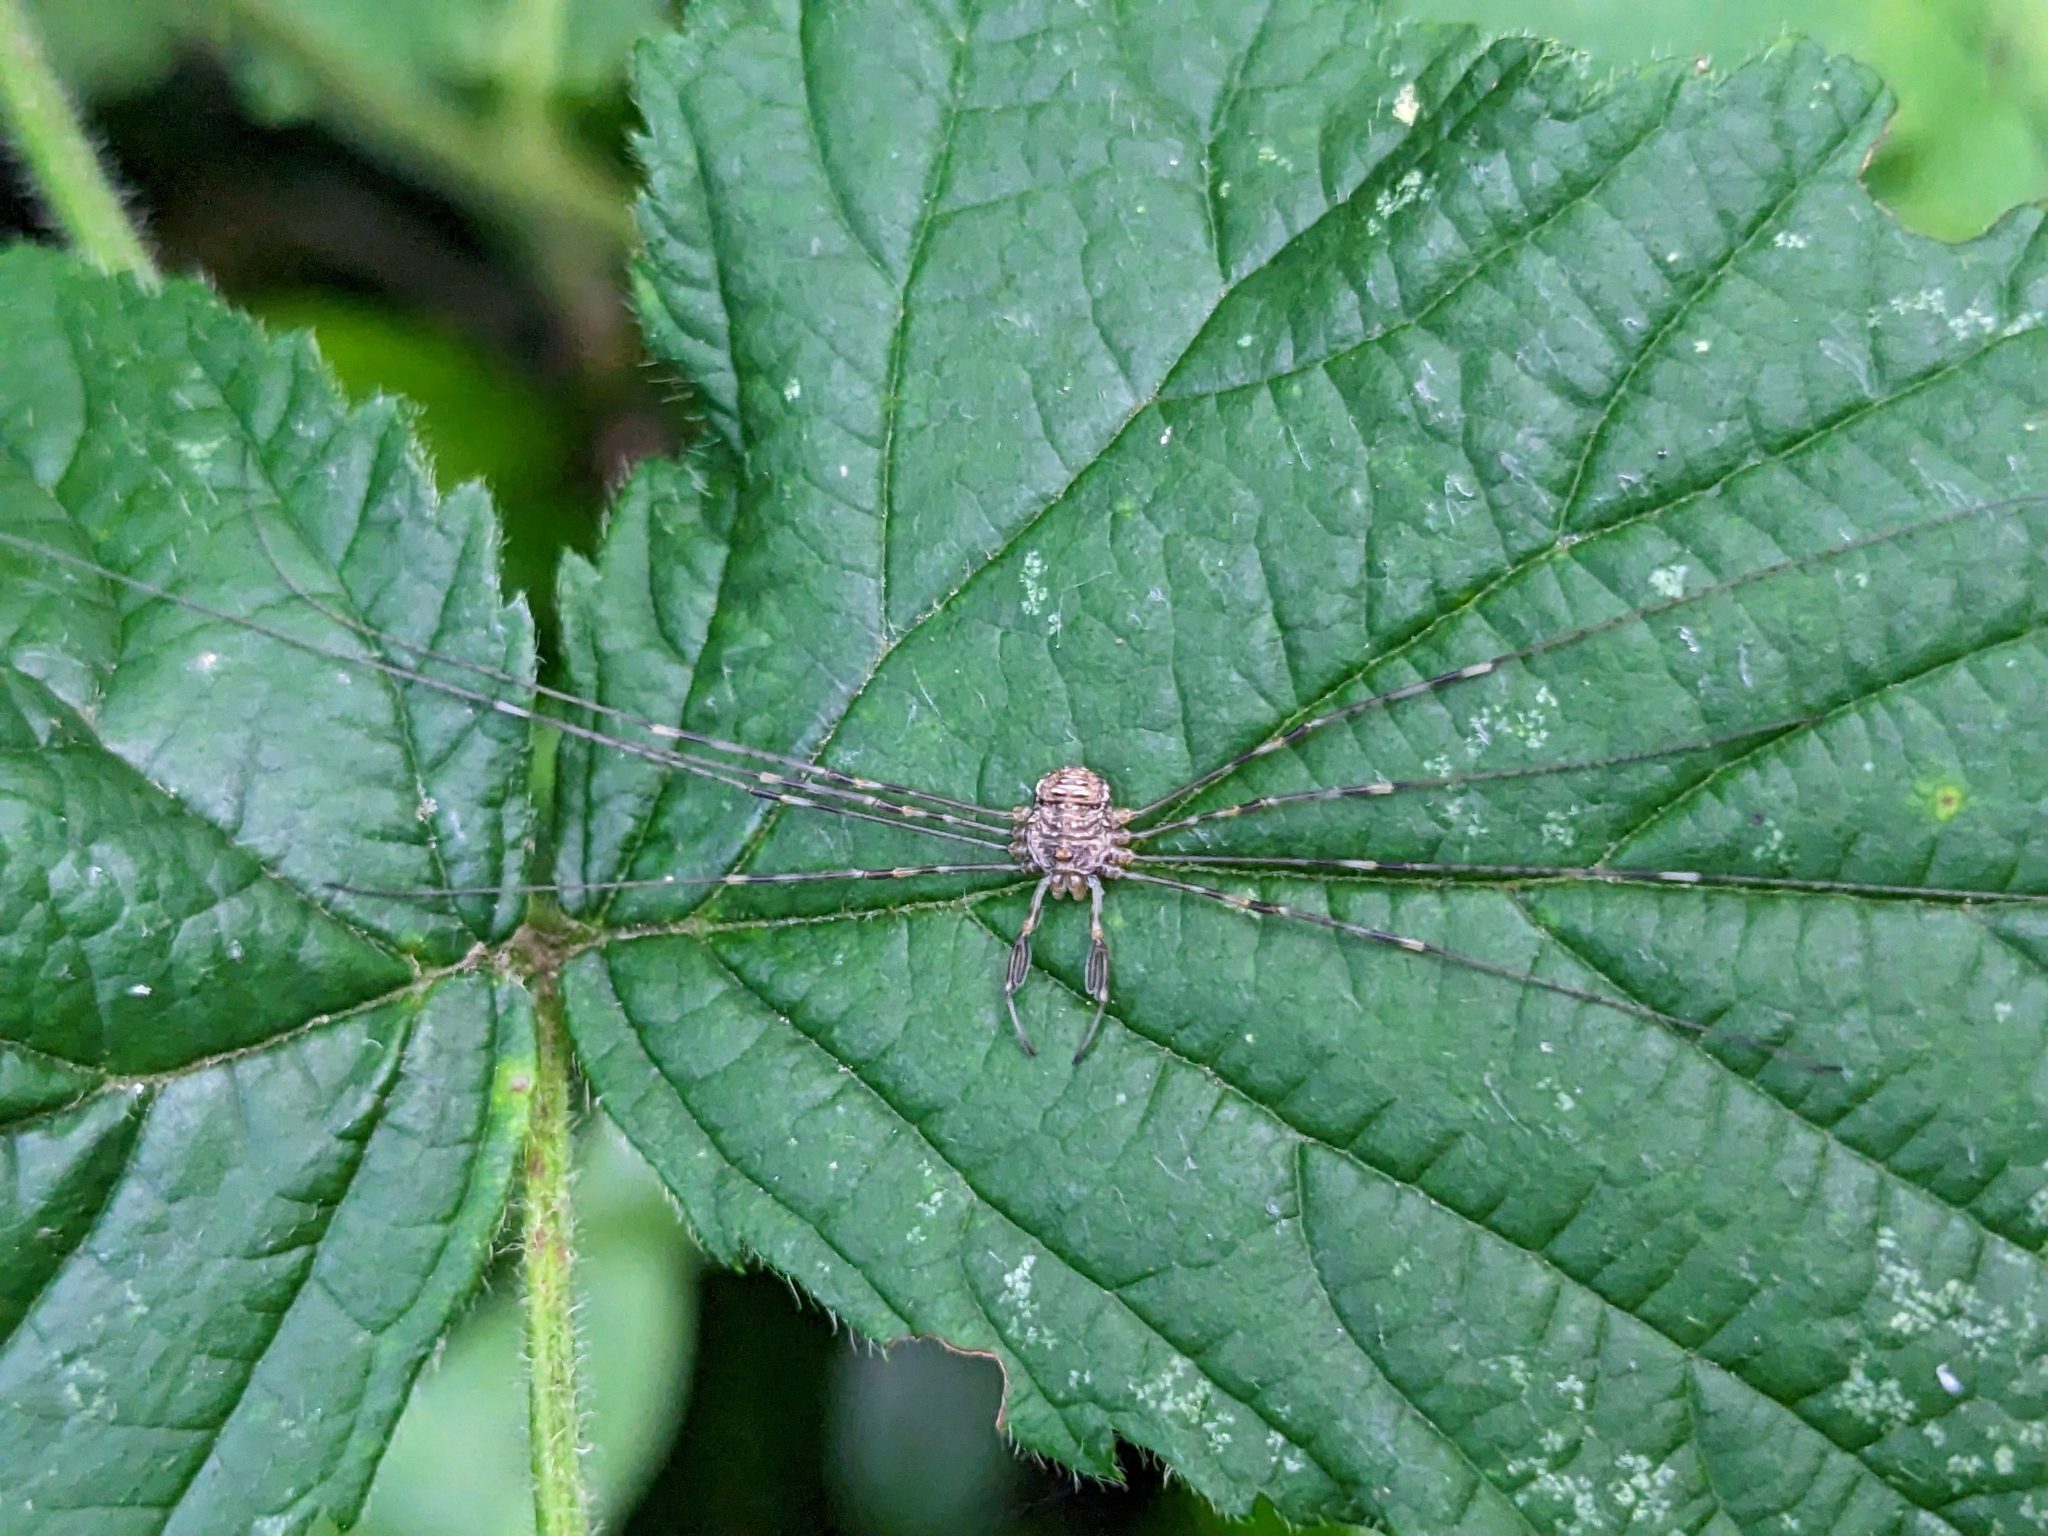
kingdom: Animalia
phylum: Arthropoda
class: Arachnida
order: Opiliones
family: Phalangiidae
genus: Dicranopalpus
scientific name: Dicranopalpus ramosus
